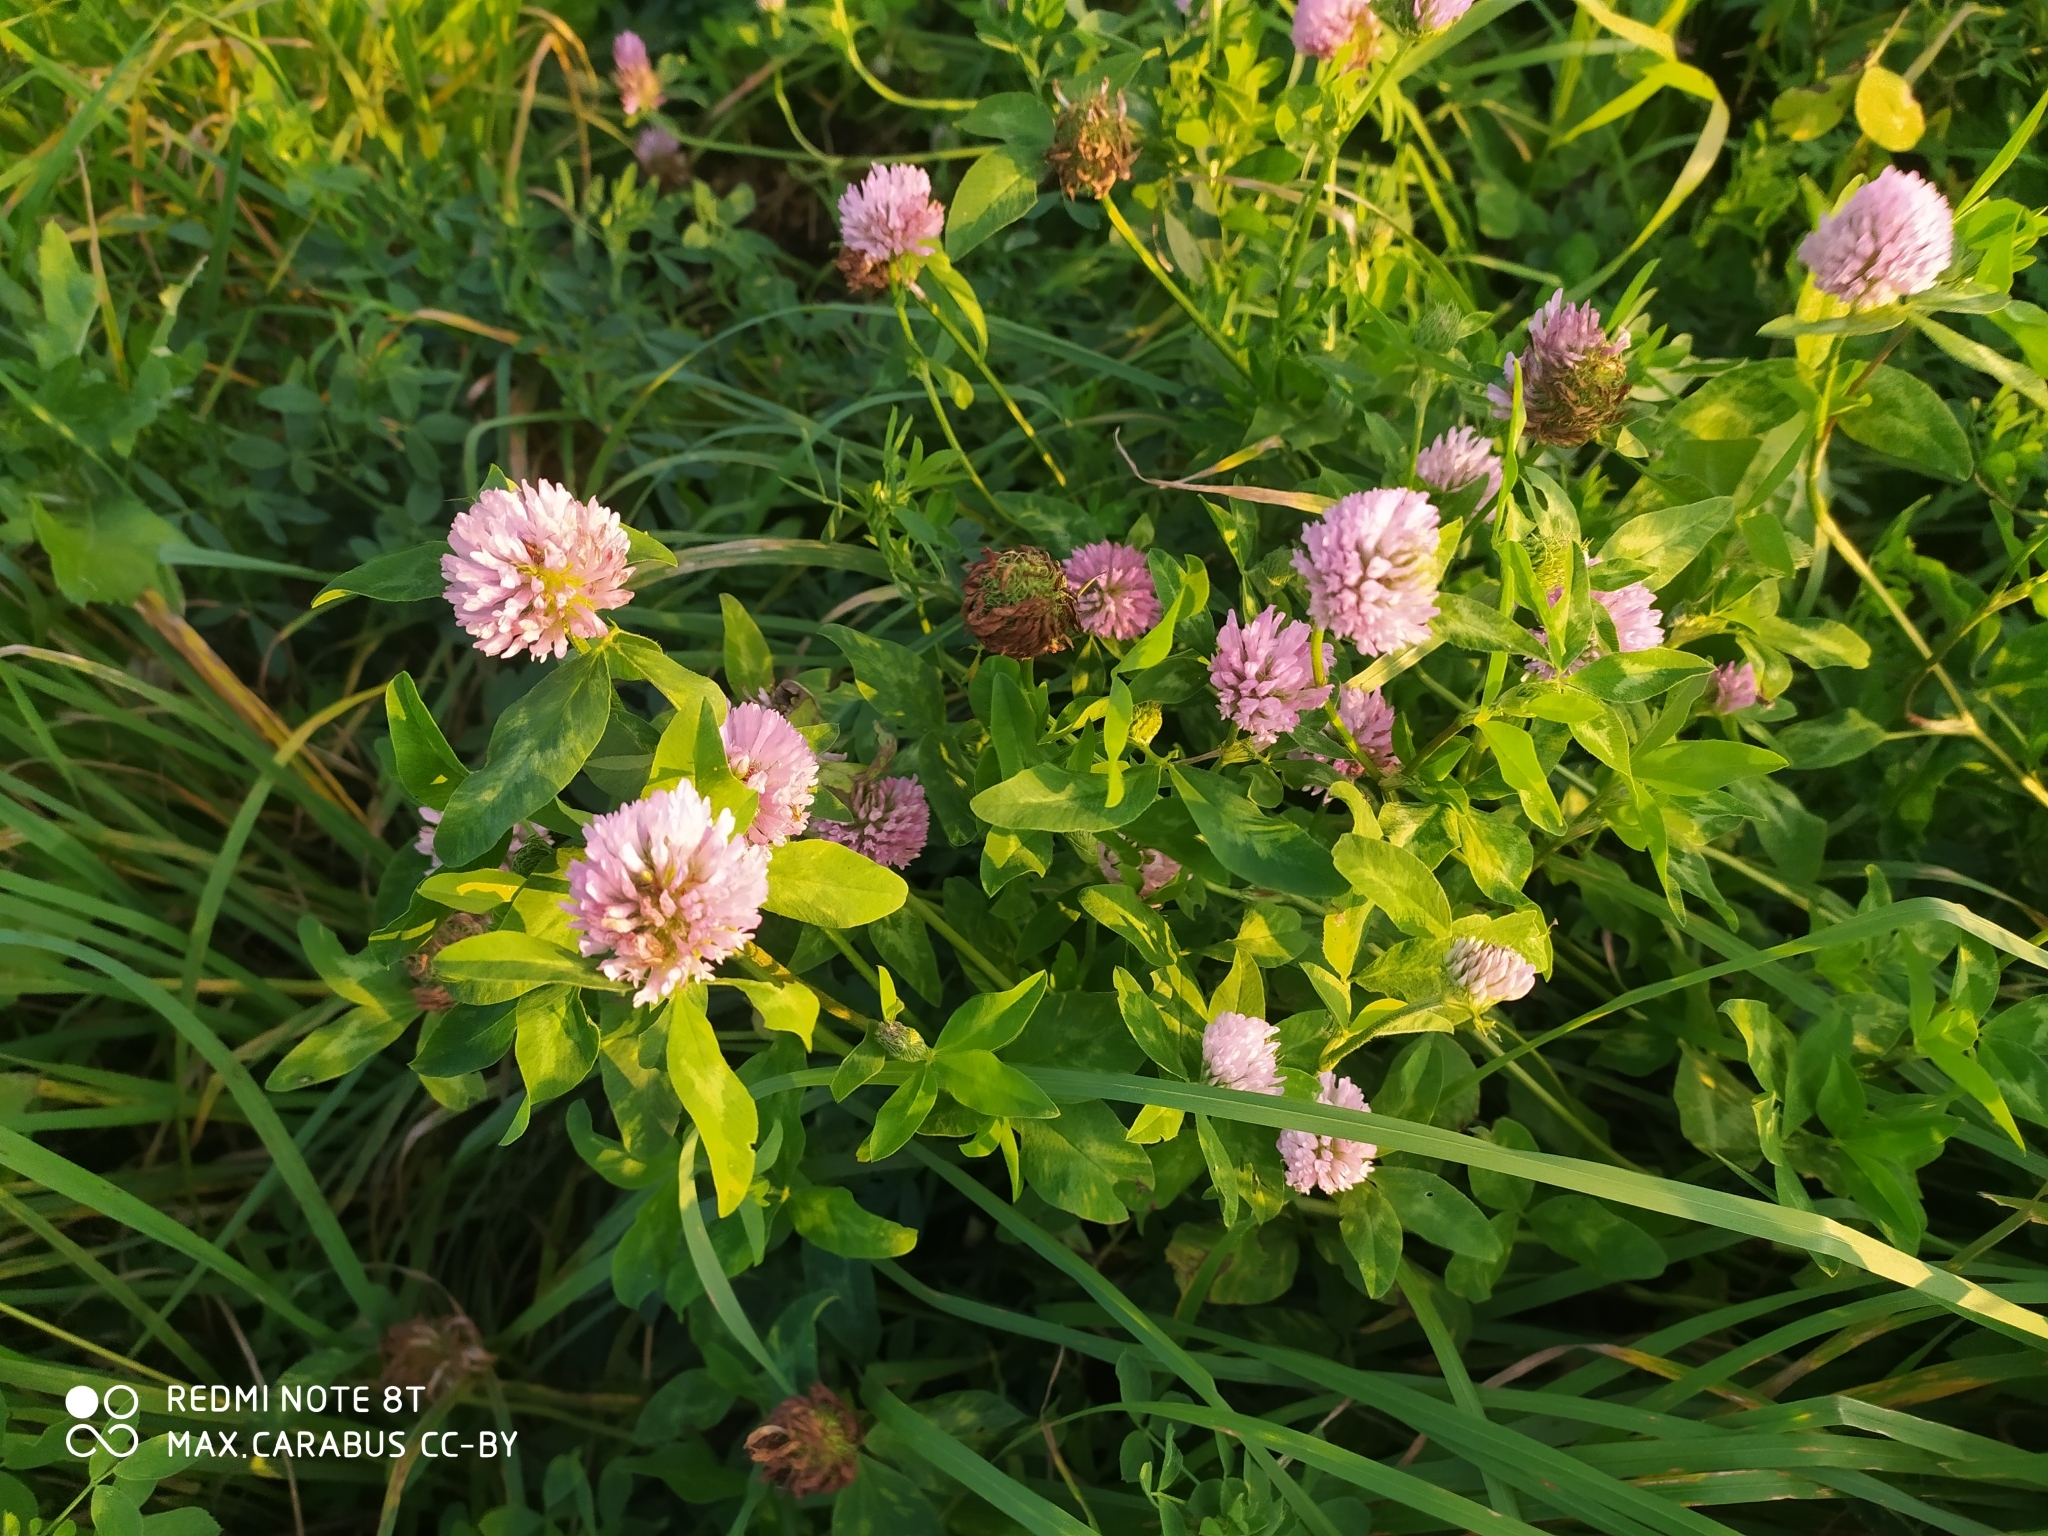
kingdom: Plantae
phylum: Tracheophyta
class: Magnoliopsida
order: Fabales
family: Fabaceae
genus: Trifolium
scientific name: Trifolium pratense
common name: Red clover
